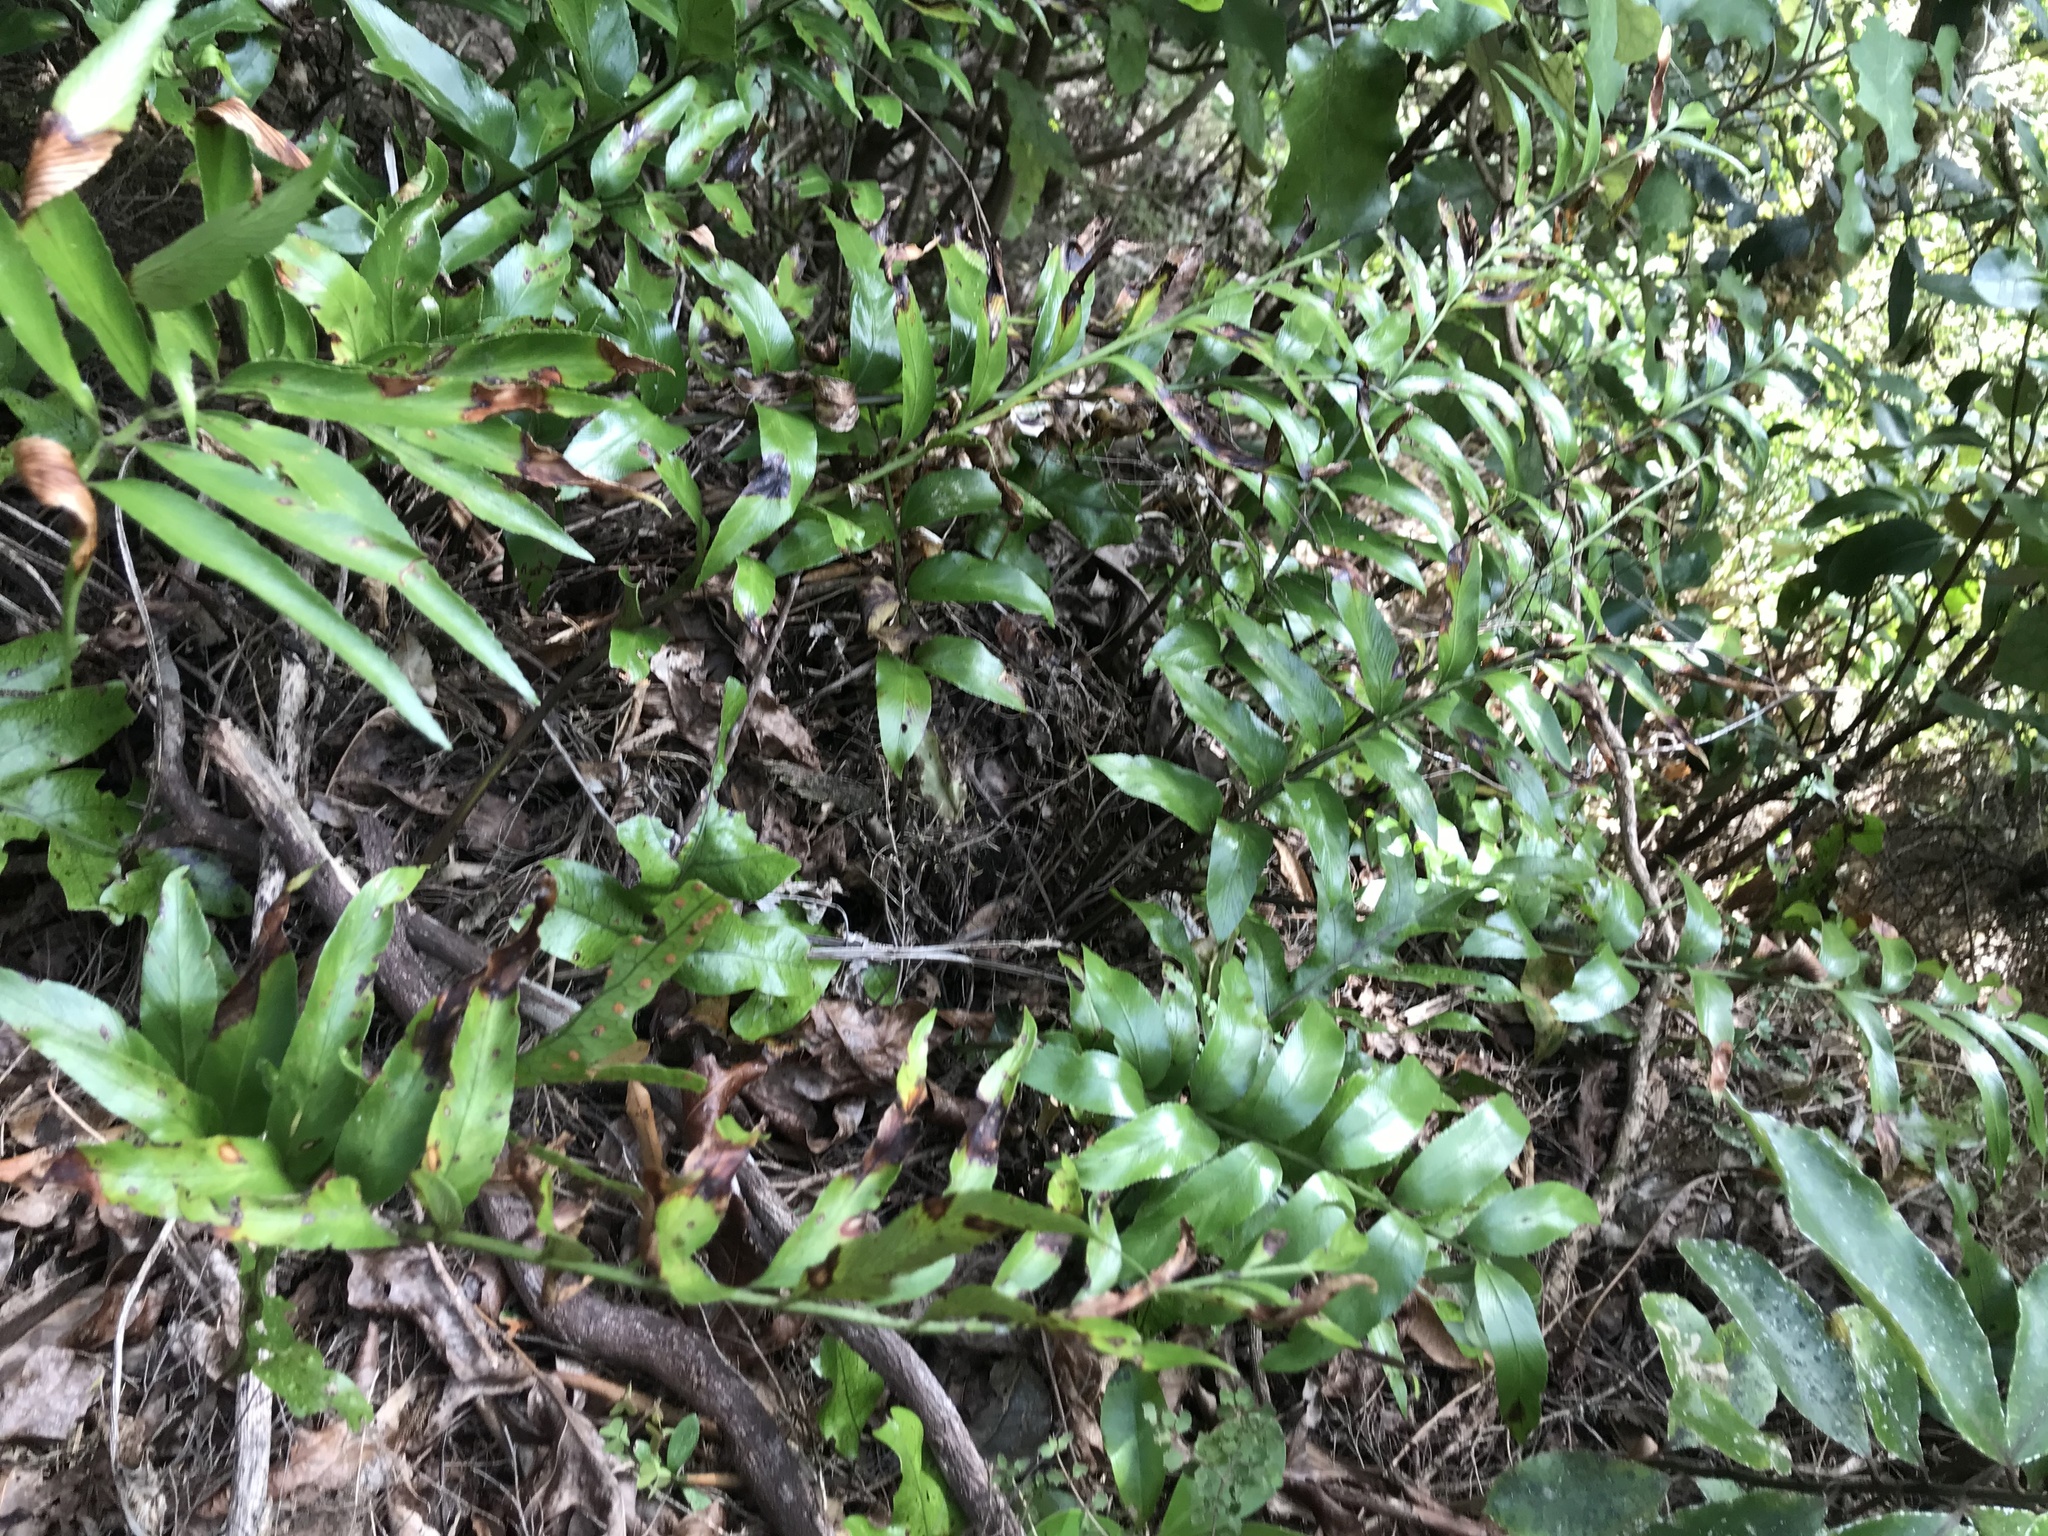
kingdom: Plantae
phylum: Tracheophyta
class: Polypodiopsida
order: Polypodiales
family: Aspleniaceae
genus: Asplenium
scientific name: Asplenium oblongifolium
